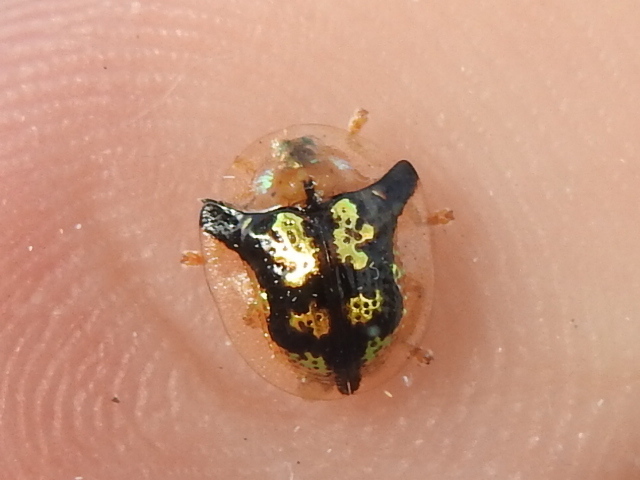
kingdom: Animalia
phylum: Arthropoda
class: Insecta
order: Coleoptera
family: Chrysomelidae
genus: Deloyala
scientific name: Deloyala guttata
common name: Mottled tortoise beetle
